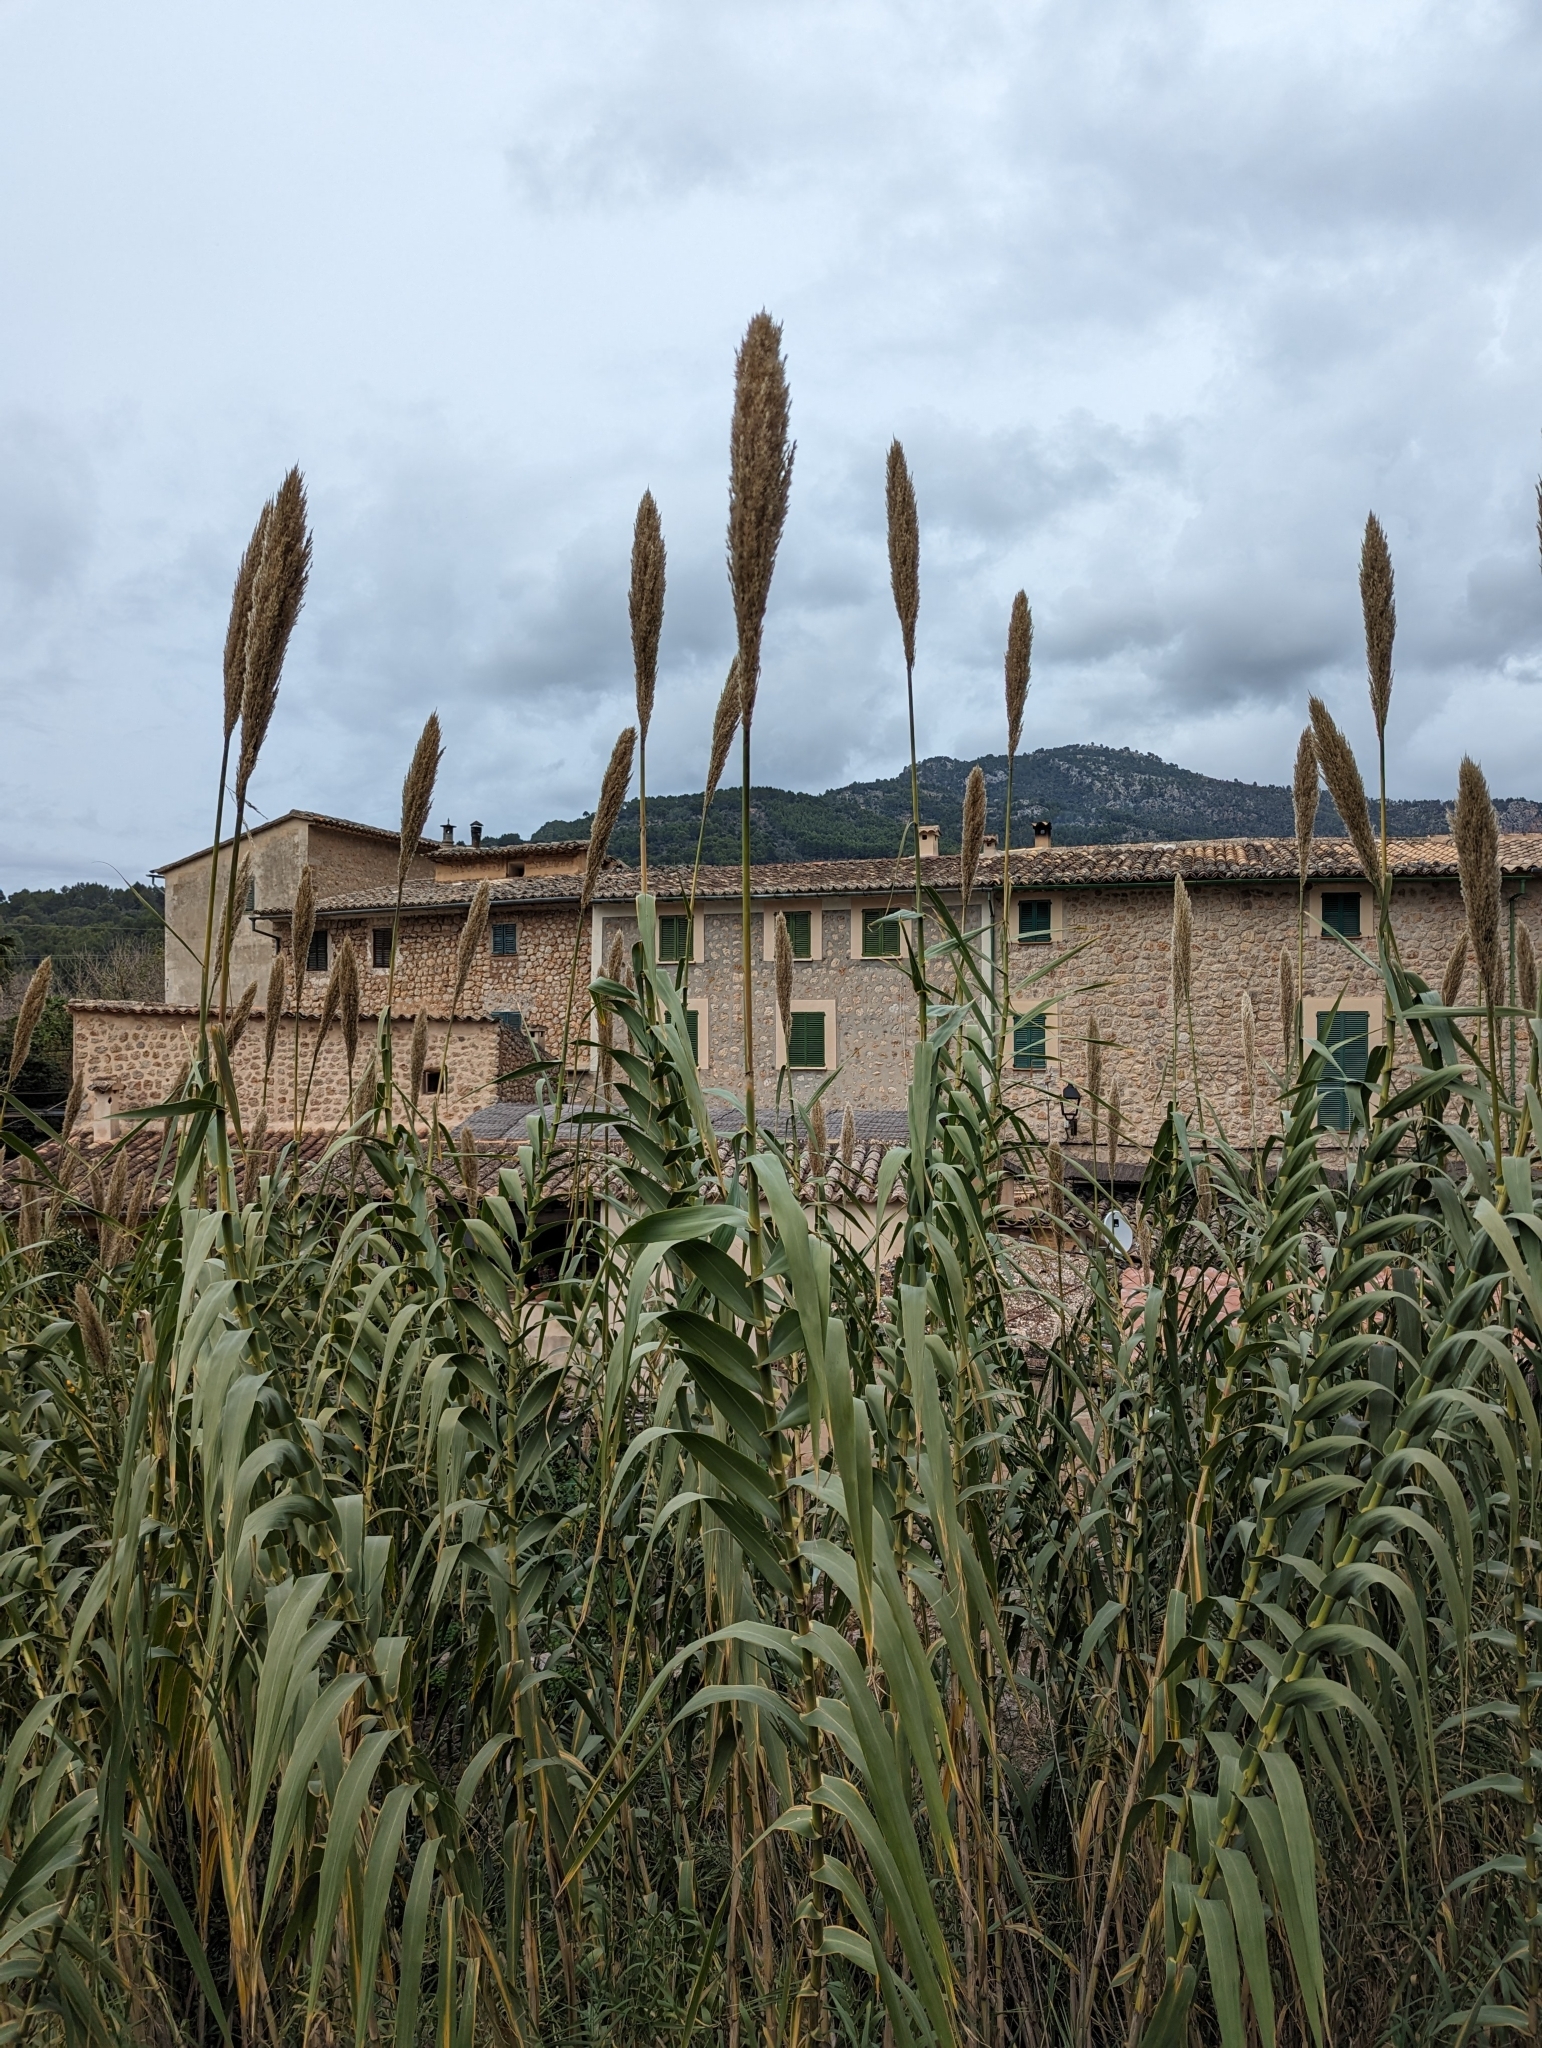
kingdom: Plantae
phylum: Tracheophyta
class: Liliopsida
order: Poales
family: Poaceae
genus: Arundo
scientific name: Arundo donax
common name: Giant reed
